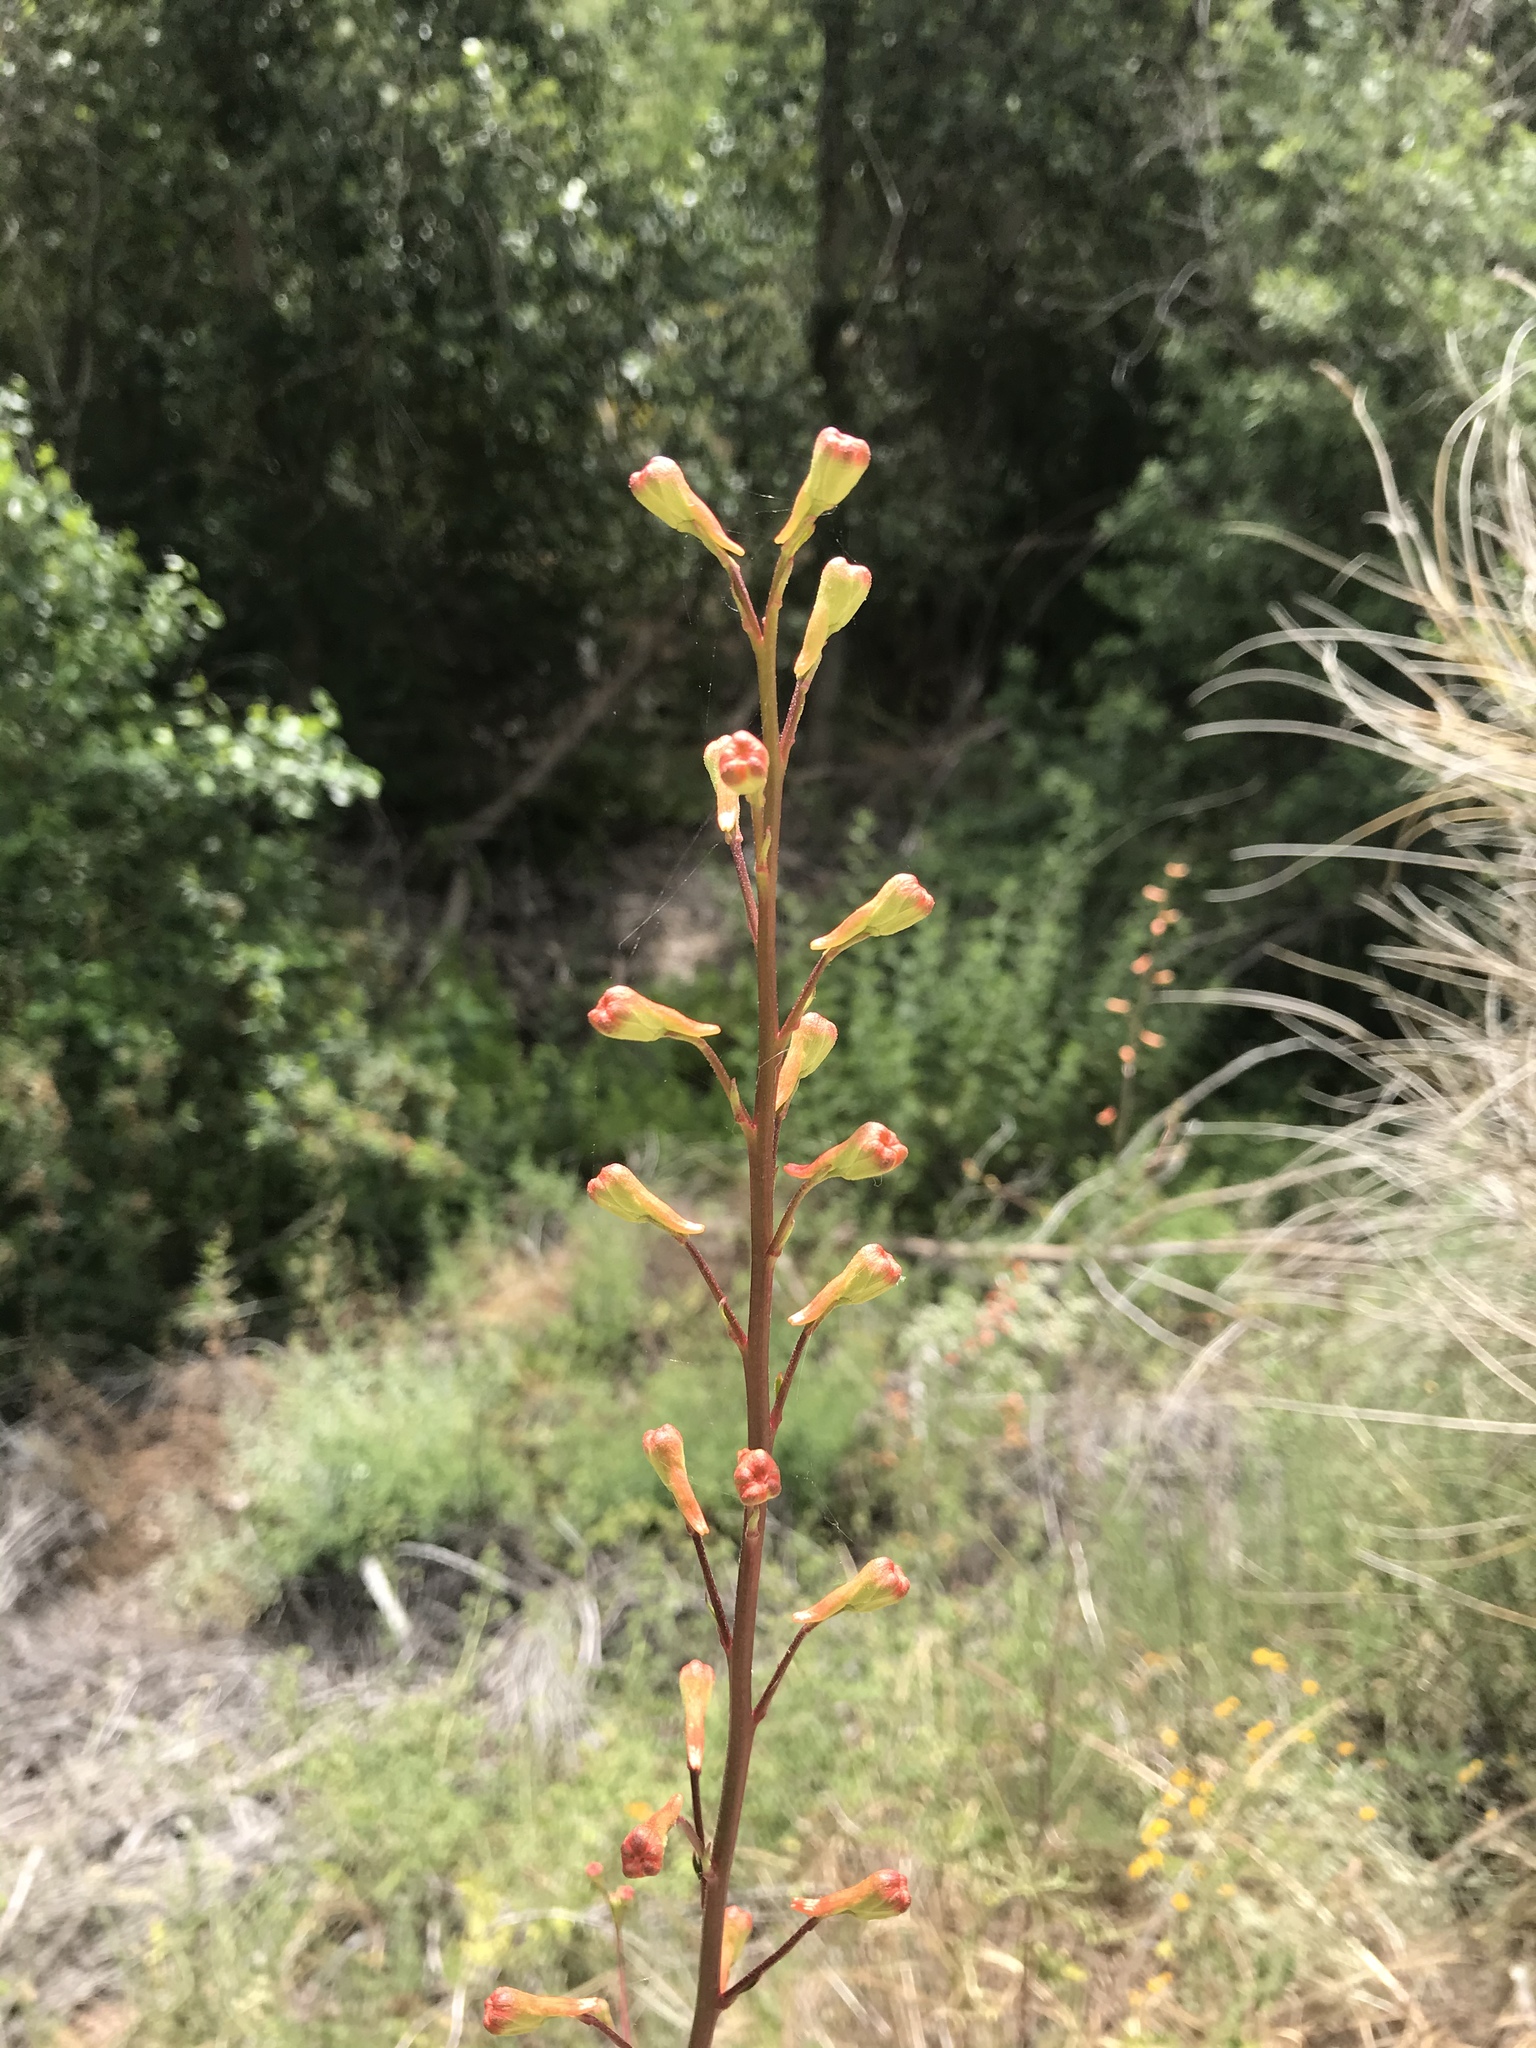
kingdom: Plantae
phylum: Tracheophyta
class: Magnoliopsida
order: Ranunculales
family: Ranunculaceae
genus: Delphinium
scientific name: Delphinium cardinale
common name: Scarlet larkspur
